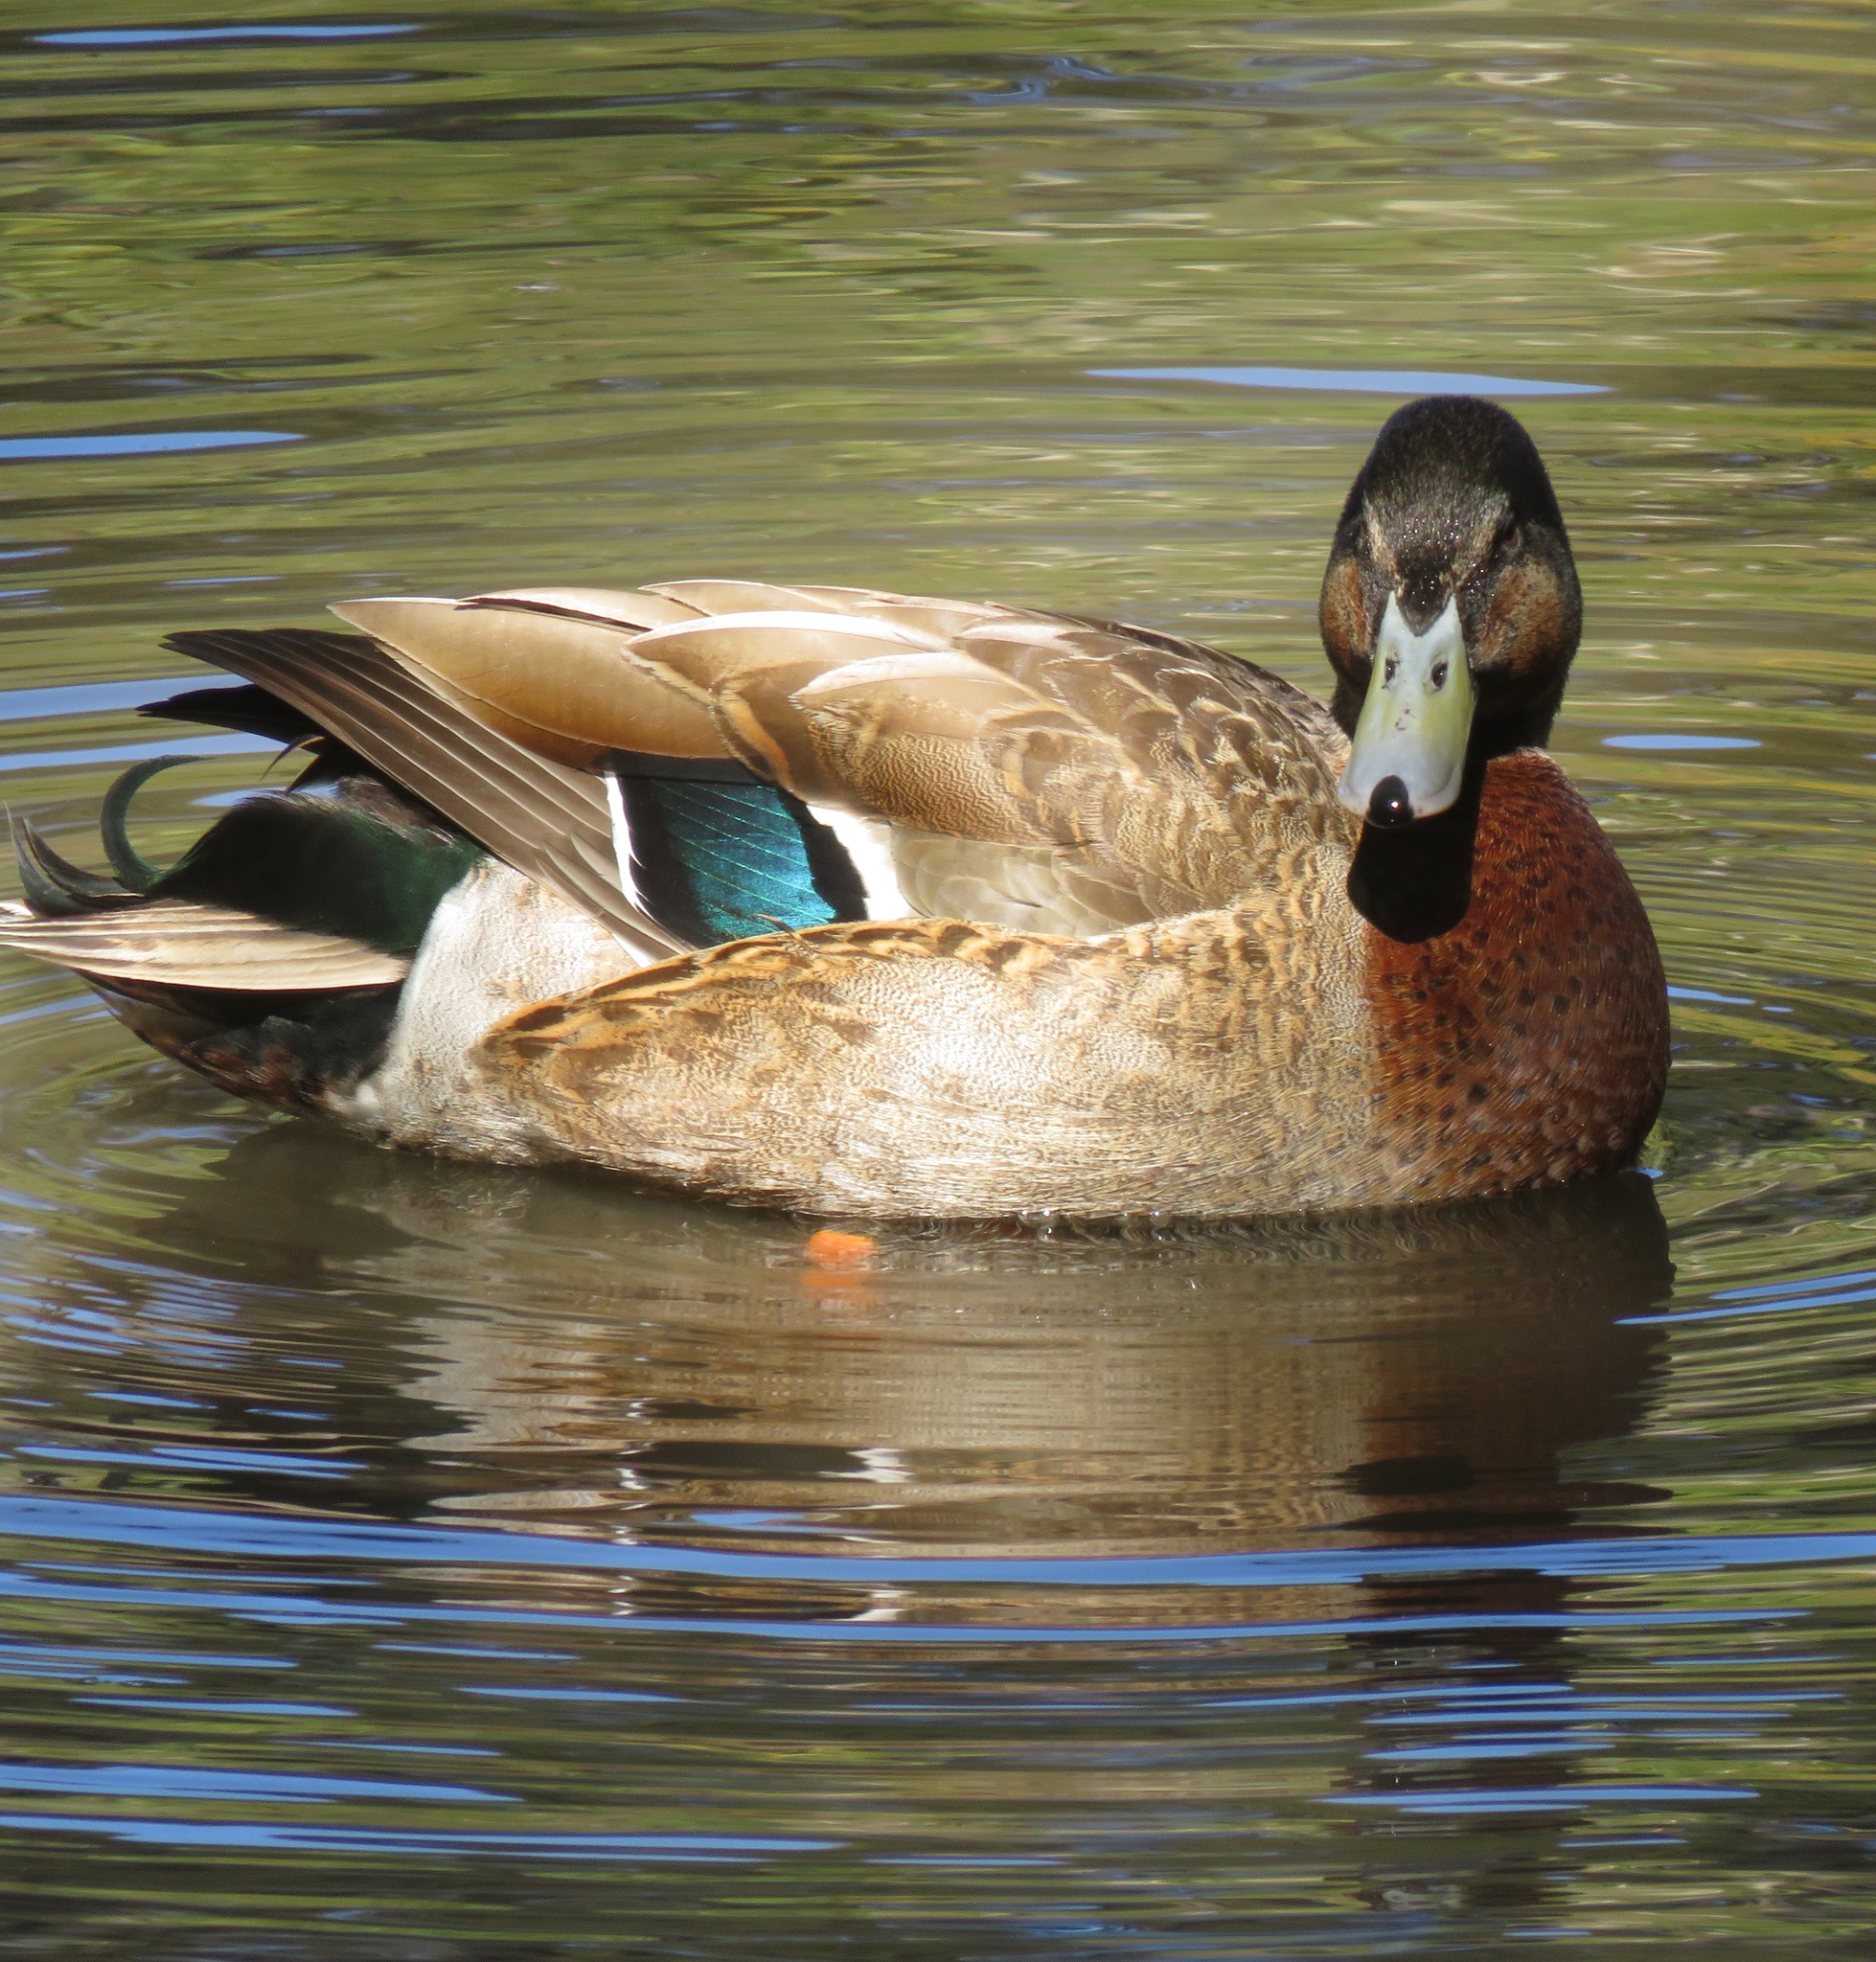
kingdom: Animalia
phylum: Chordata
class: Aves
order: Anseriformes
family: Anatidae
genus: Anas
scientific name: Anas
